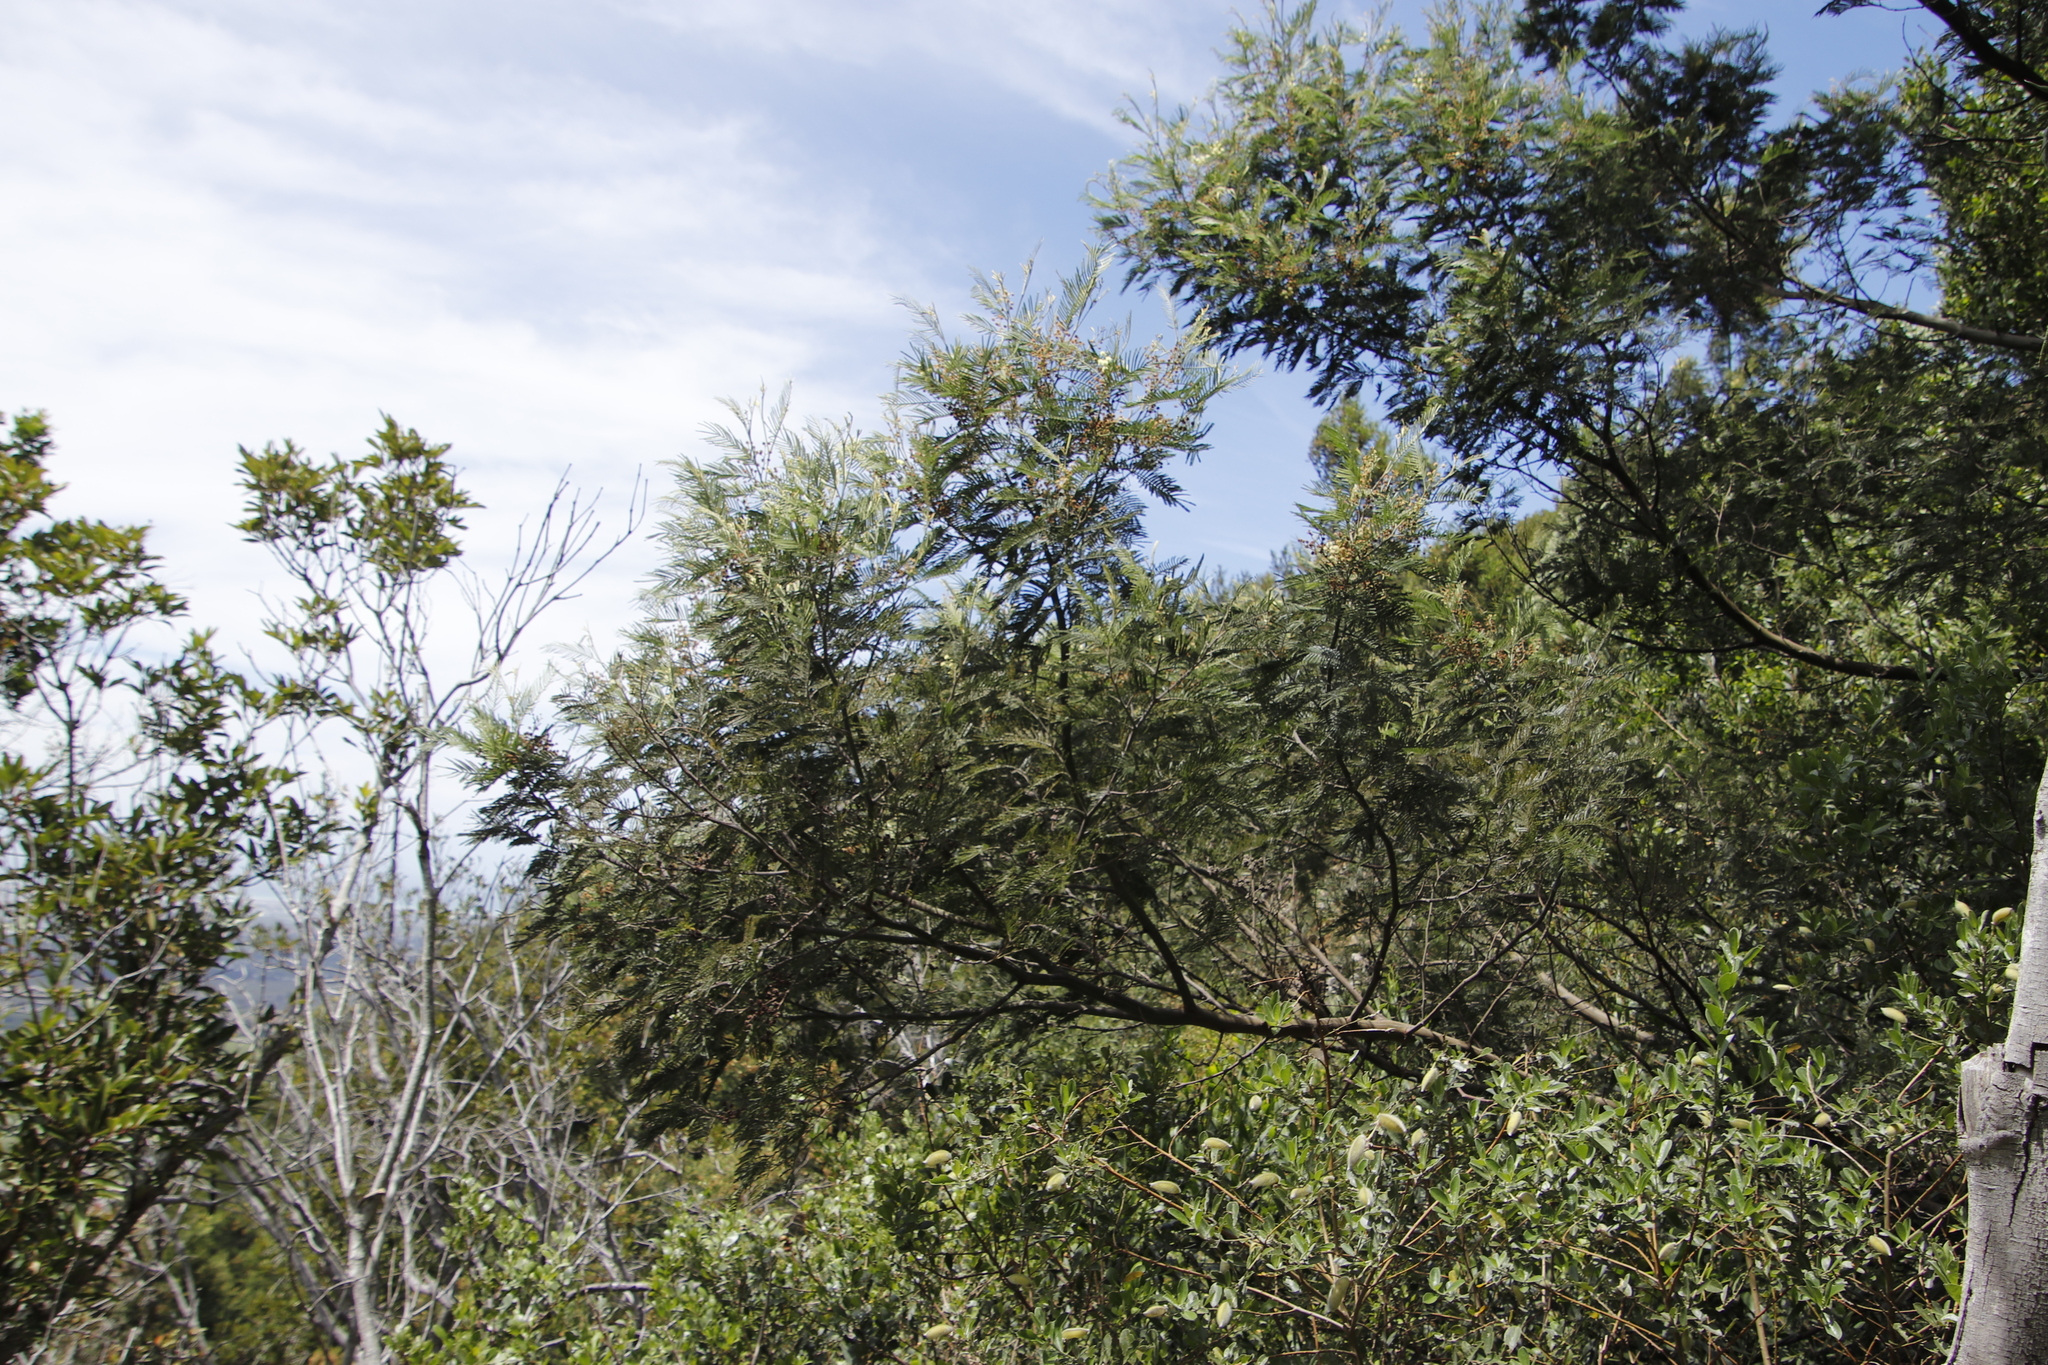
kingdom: Plantae
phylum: Tracheophyta
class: Magnoliopsida
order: Fabales
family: Fabaceae
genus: Acacia
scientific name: Acacia mearnsii
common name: Black wattle
